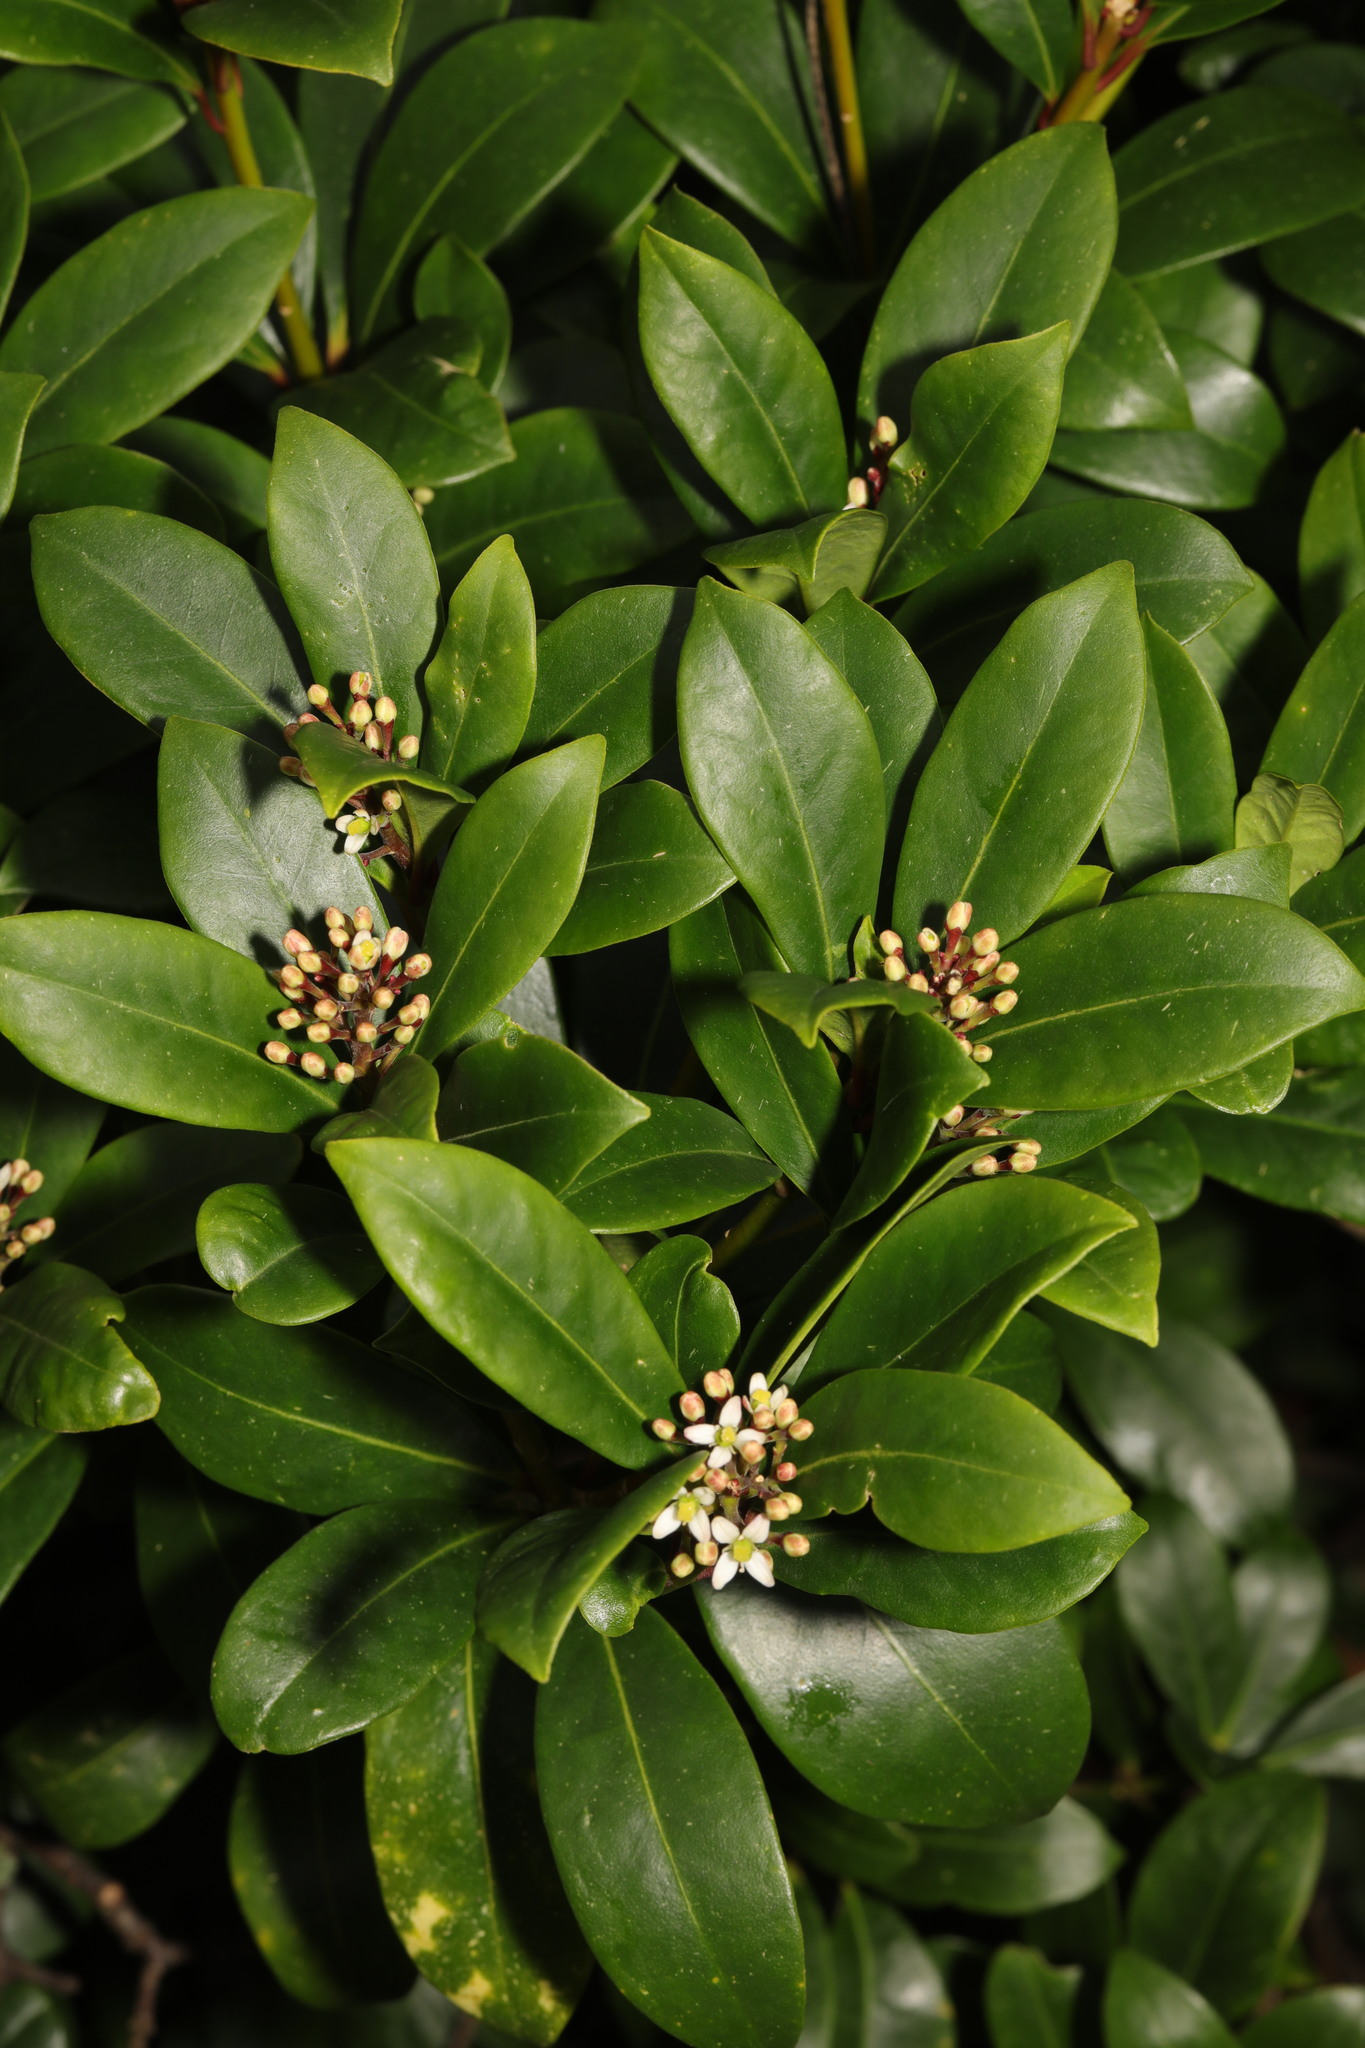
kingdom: Plantae
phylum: Tracheophyta
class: Magnoliopsida
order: Sapindales
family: Rutaceae
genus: Skimmia
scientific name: Skimmia japonica
